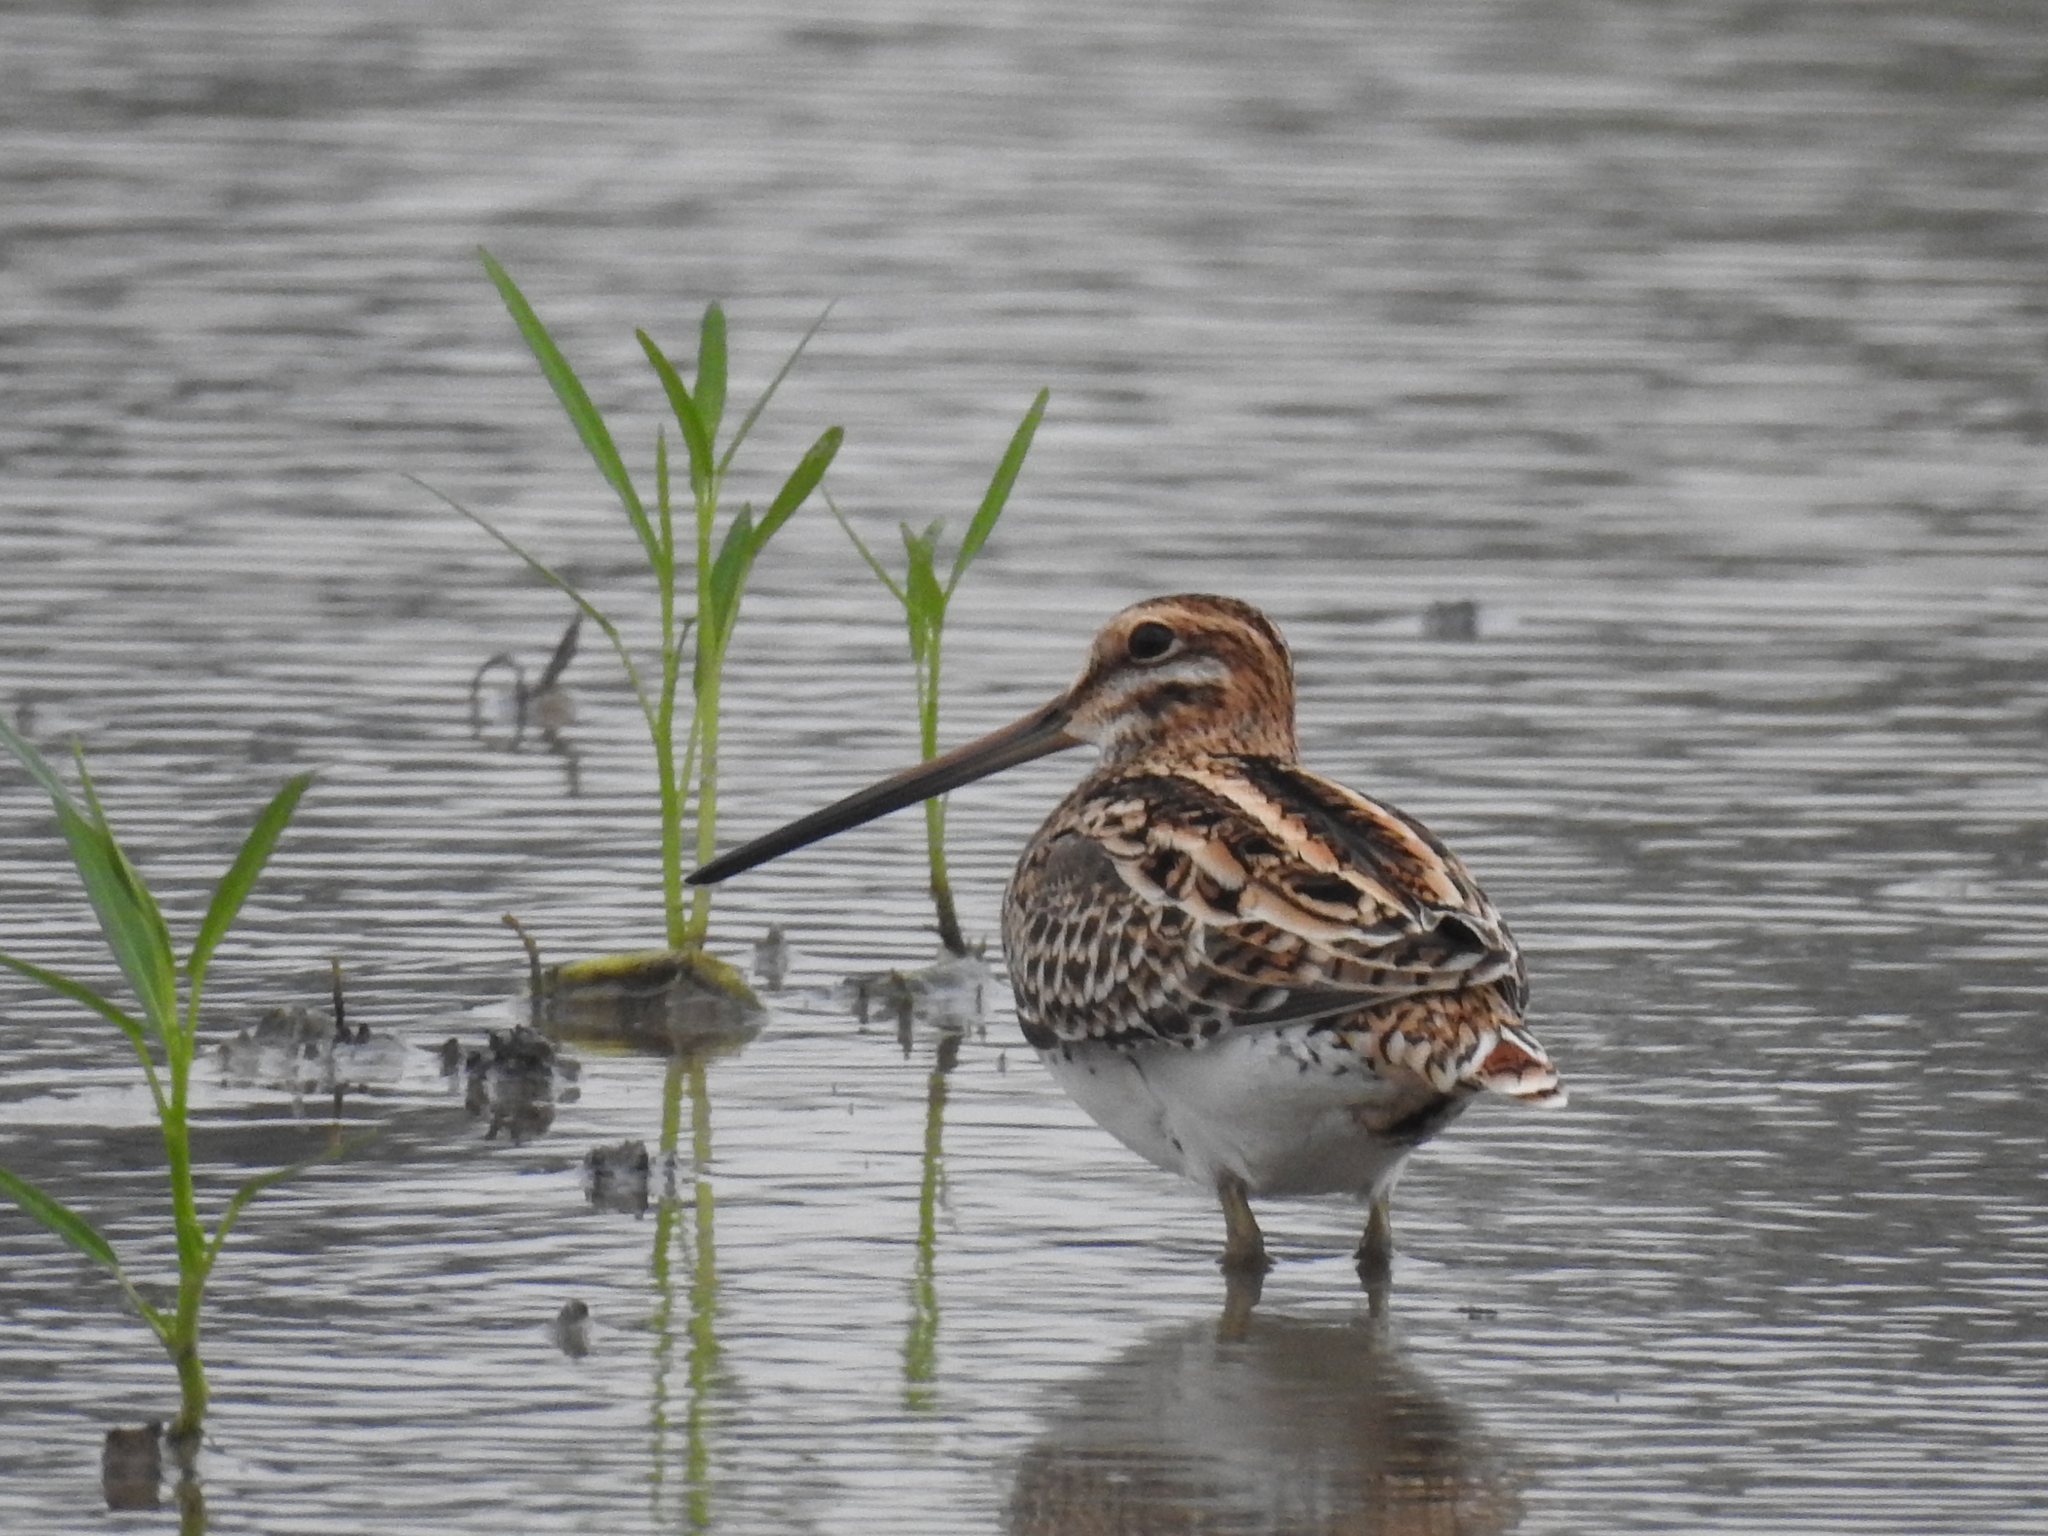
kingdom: Animalia
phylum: Chordata
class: Aves
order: Charadriiformes
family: Scolopacidae
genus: Gallinago
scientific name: Gallinago gallinago
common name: Common snipe
